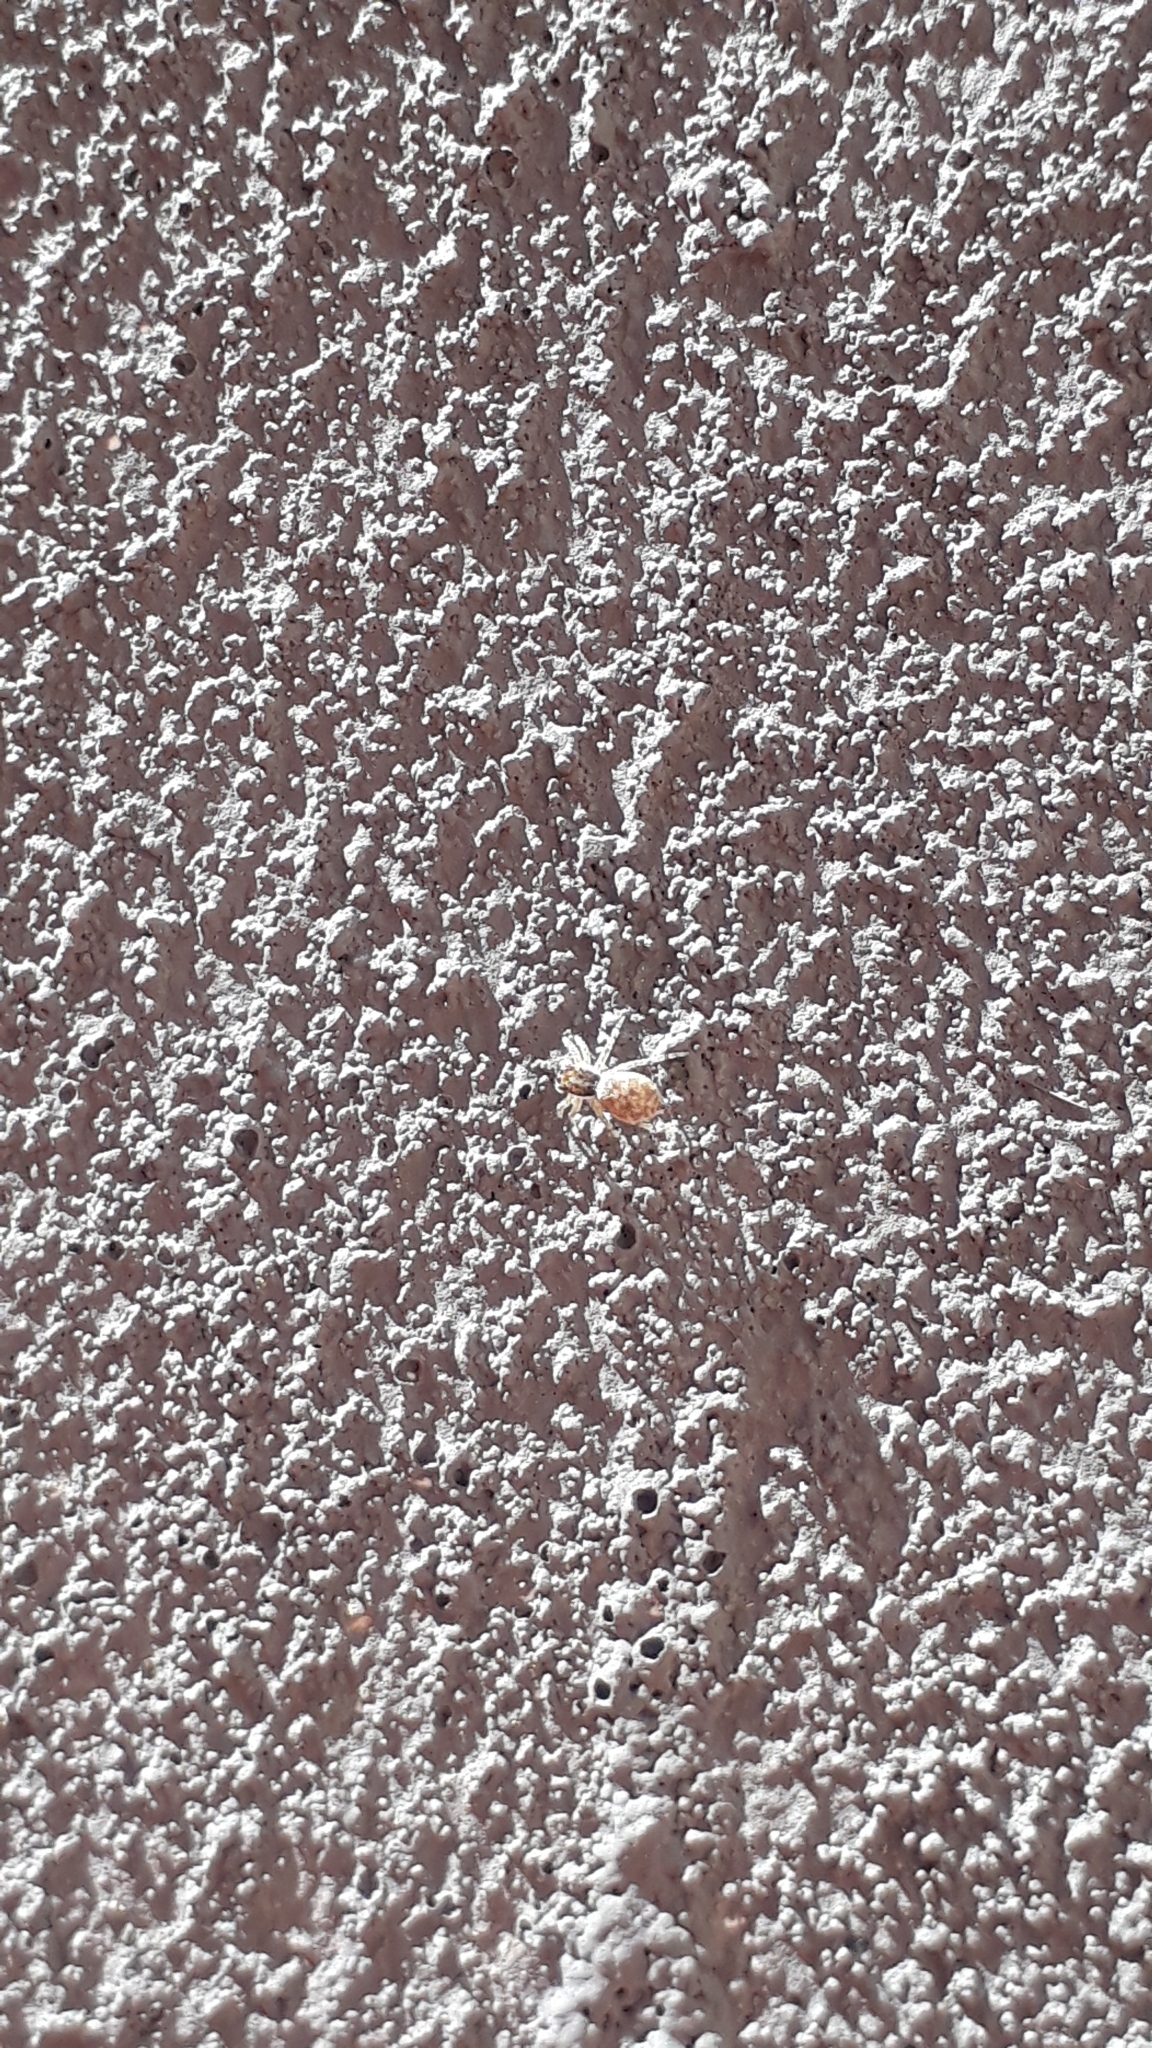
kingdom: Animalia
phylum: Arthropoda
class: Arachnida
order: Araneae
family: Salticidae
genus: Menemerus
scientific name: Menemerus semilimbatus
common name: Jumping spider
